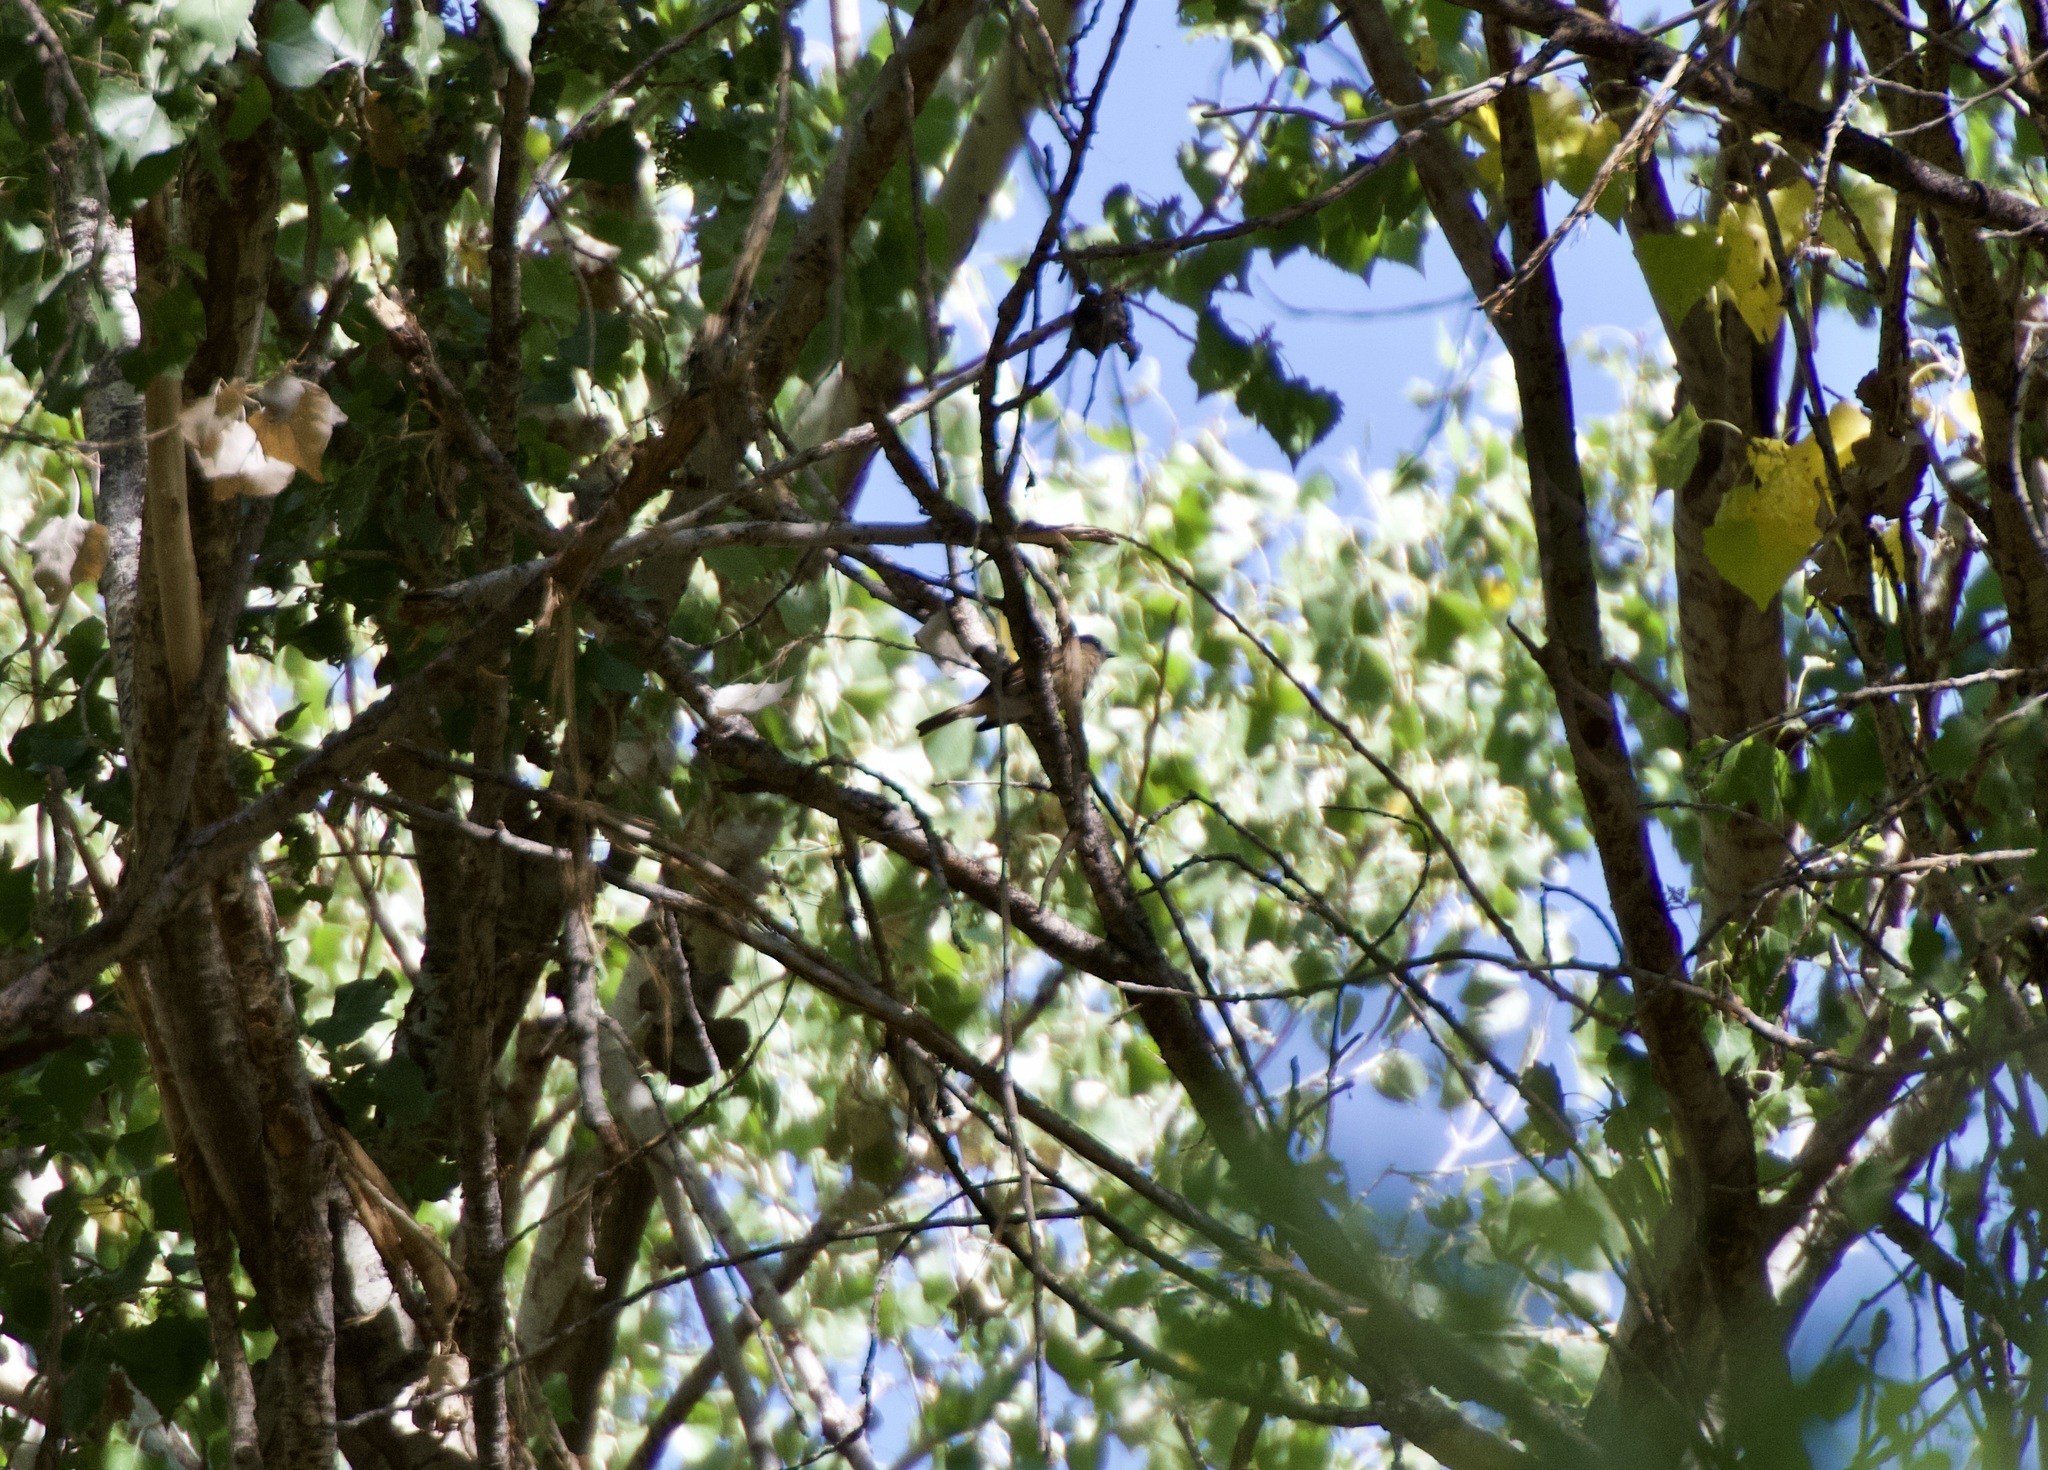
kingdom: Animalia
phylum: Chordata
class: Aves
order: Passeriformes
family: Cotingidae
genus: Pachyramphus
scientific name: Pachyramphus aglaiae
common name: Rose-throated becard
